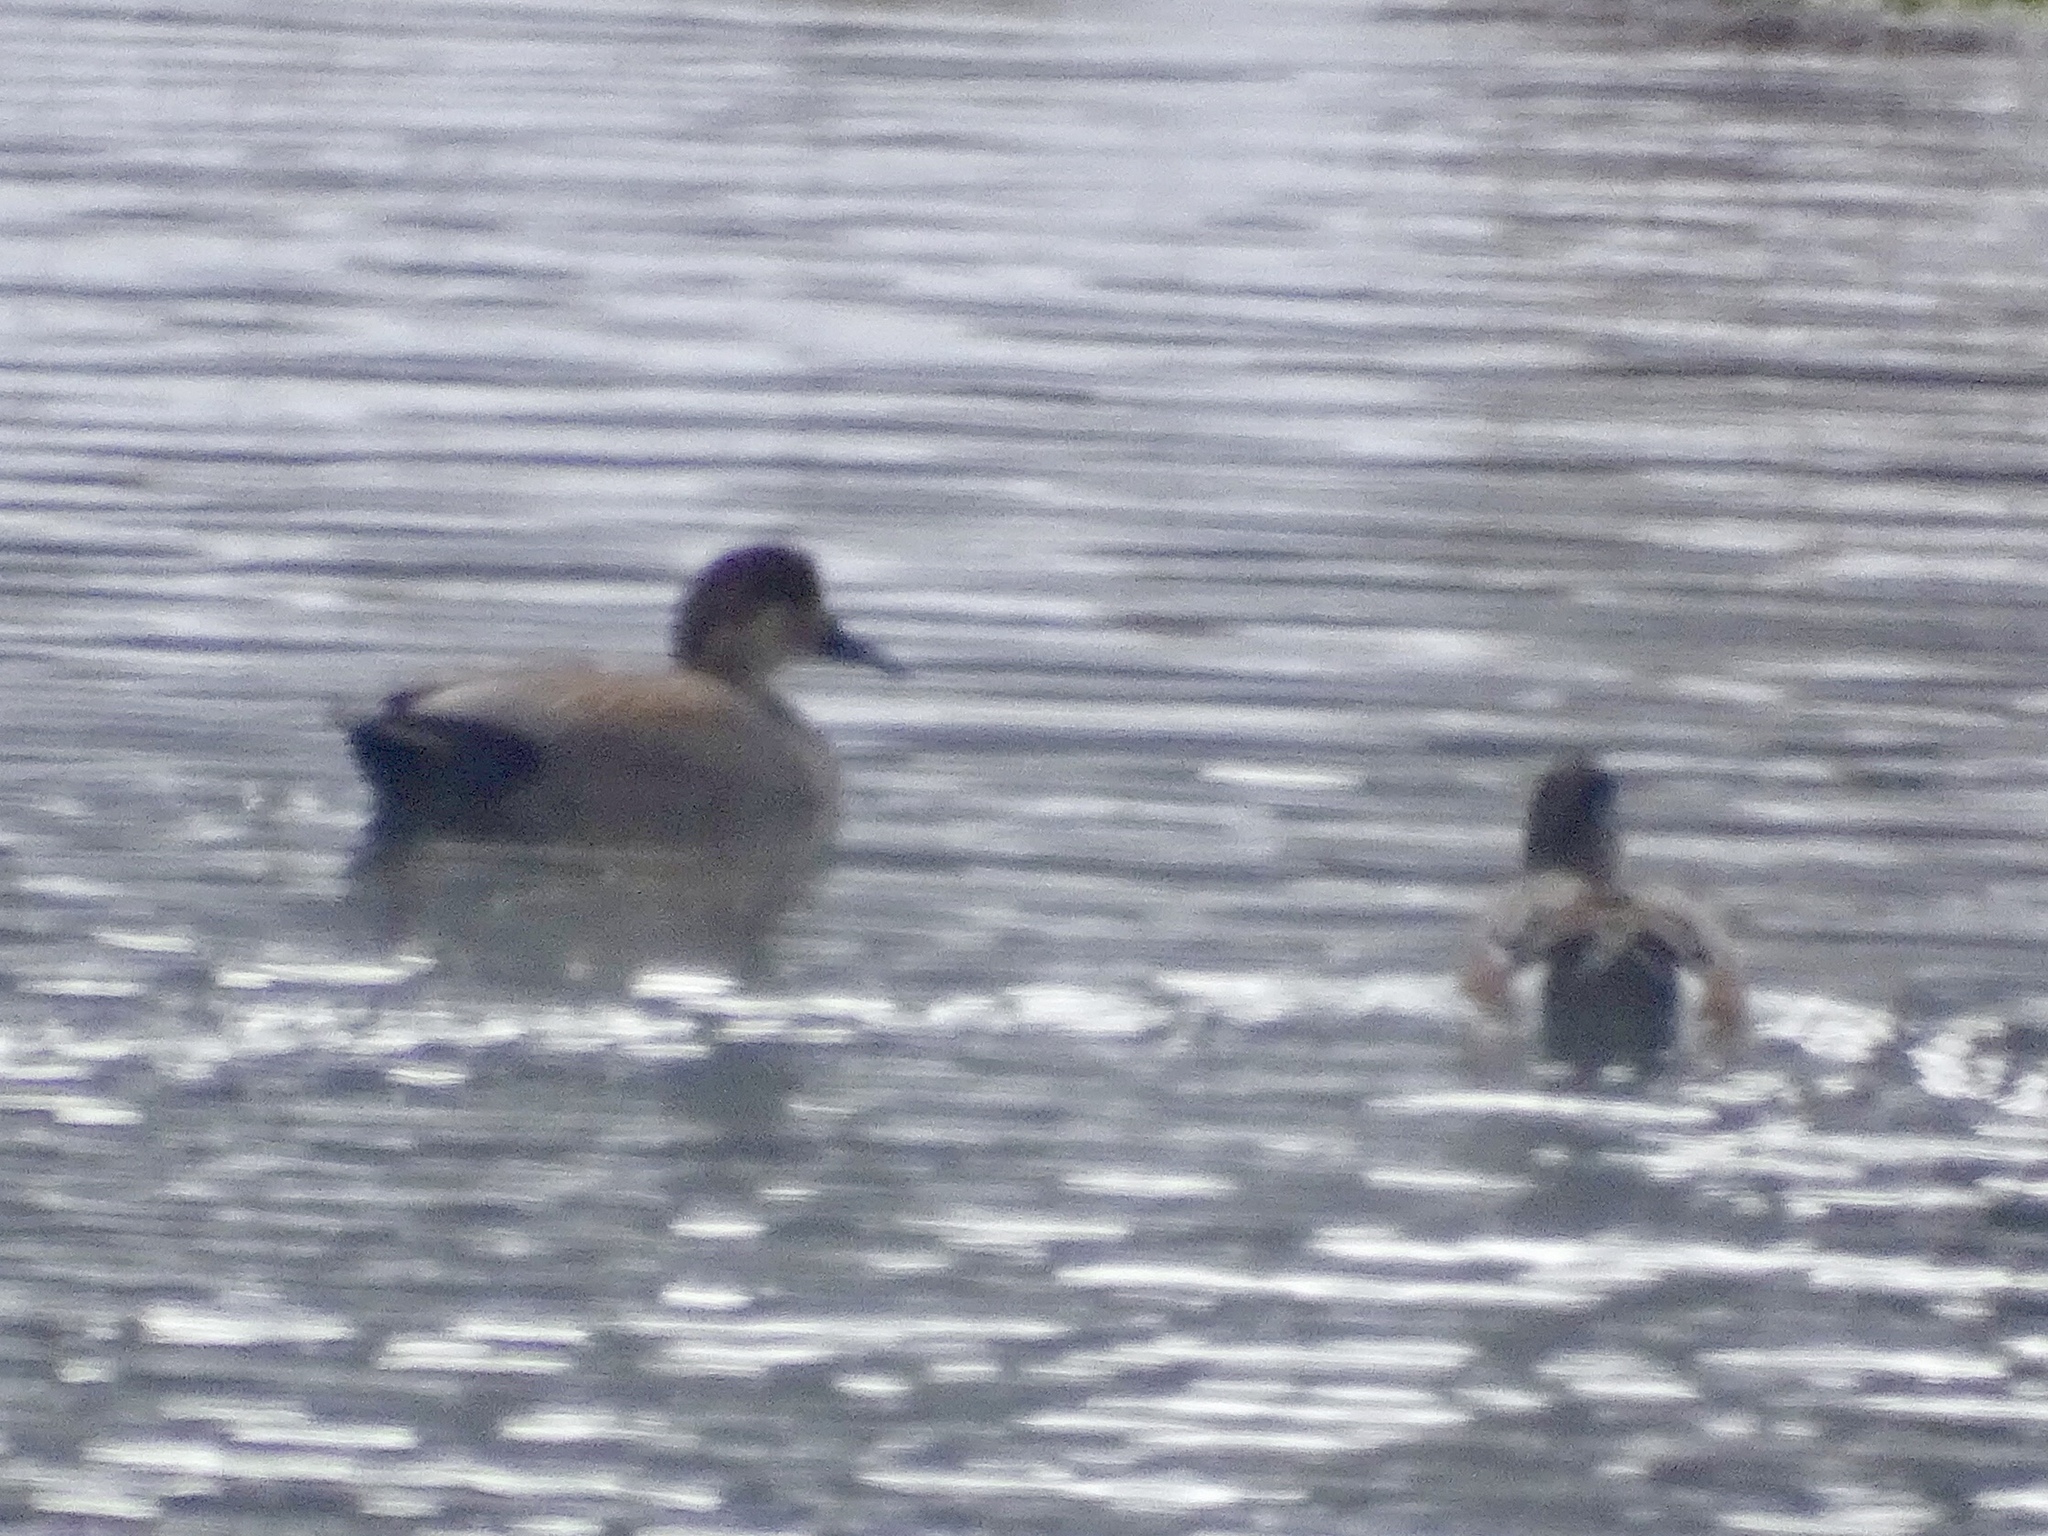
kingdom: Animalia
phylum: Chordata
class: Aves
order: Anseriformes
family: Anatidae
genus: Mareca
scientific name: Mareca strepera
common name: Gadwall
